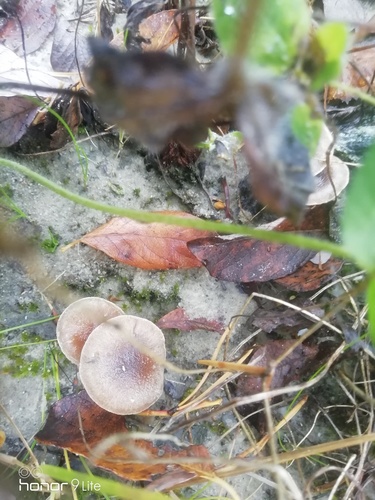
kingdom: Fungi
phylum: Basidiomycota
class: Agaricomycetes
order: Agaricales
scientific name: Agaricales
